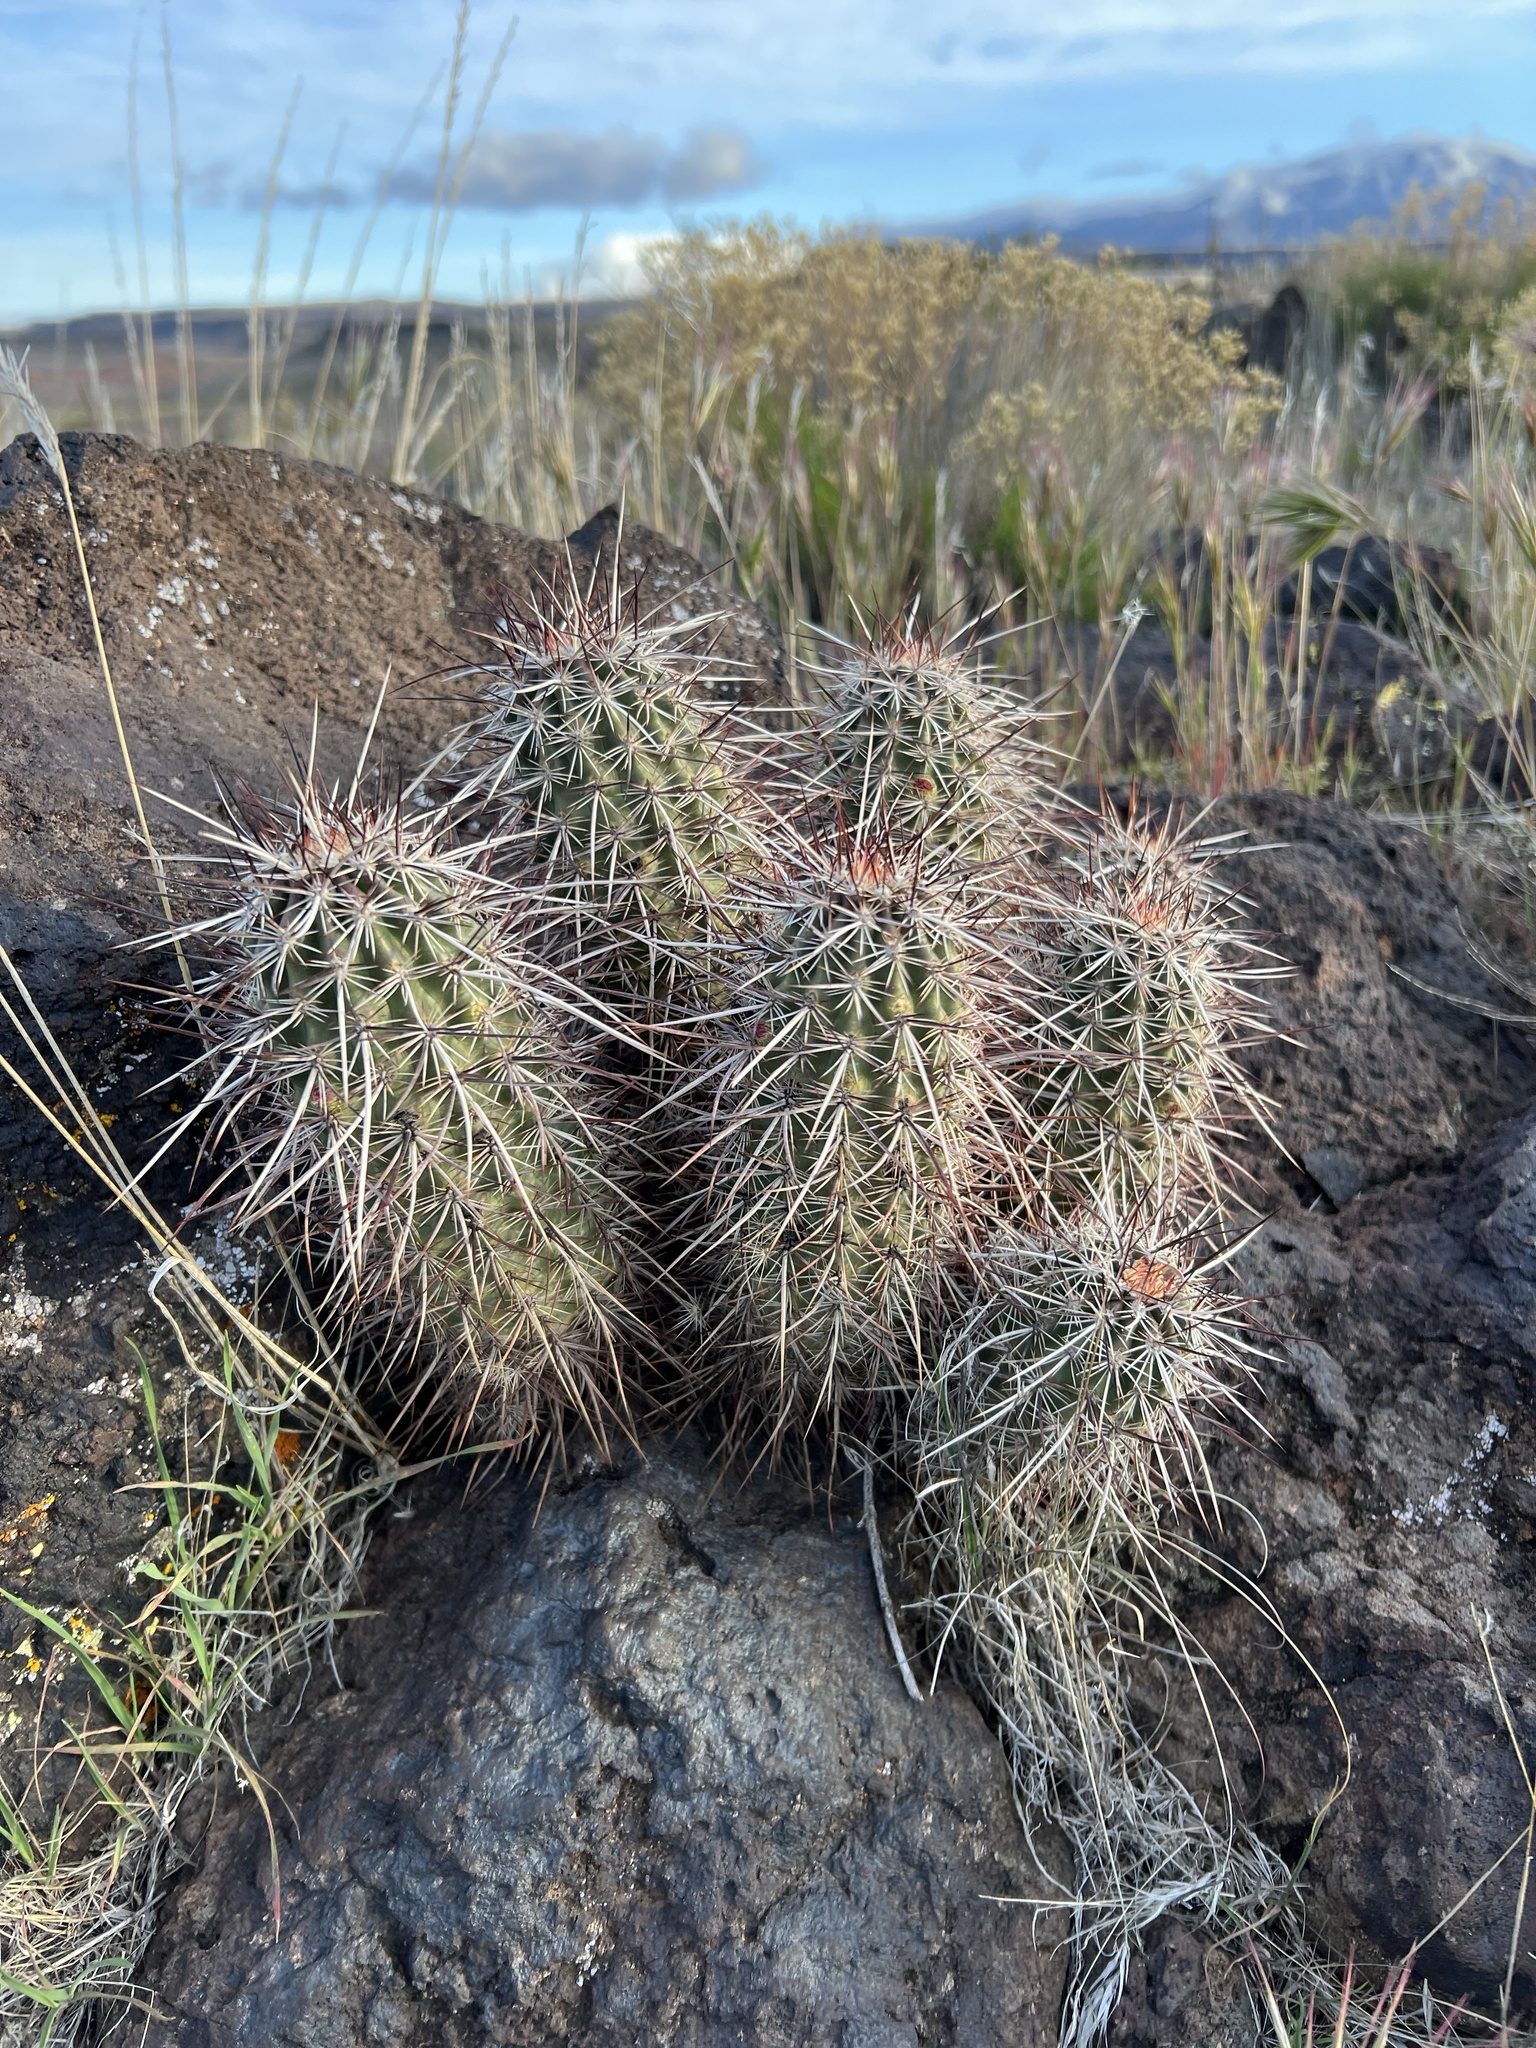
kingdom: Plantae
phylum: Tracheophyta
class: Magnoliopsida
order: Caryophyllales
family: Cactaceae
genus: Echinocereus
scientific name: Echinocereus relictus
